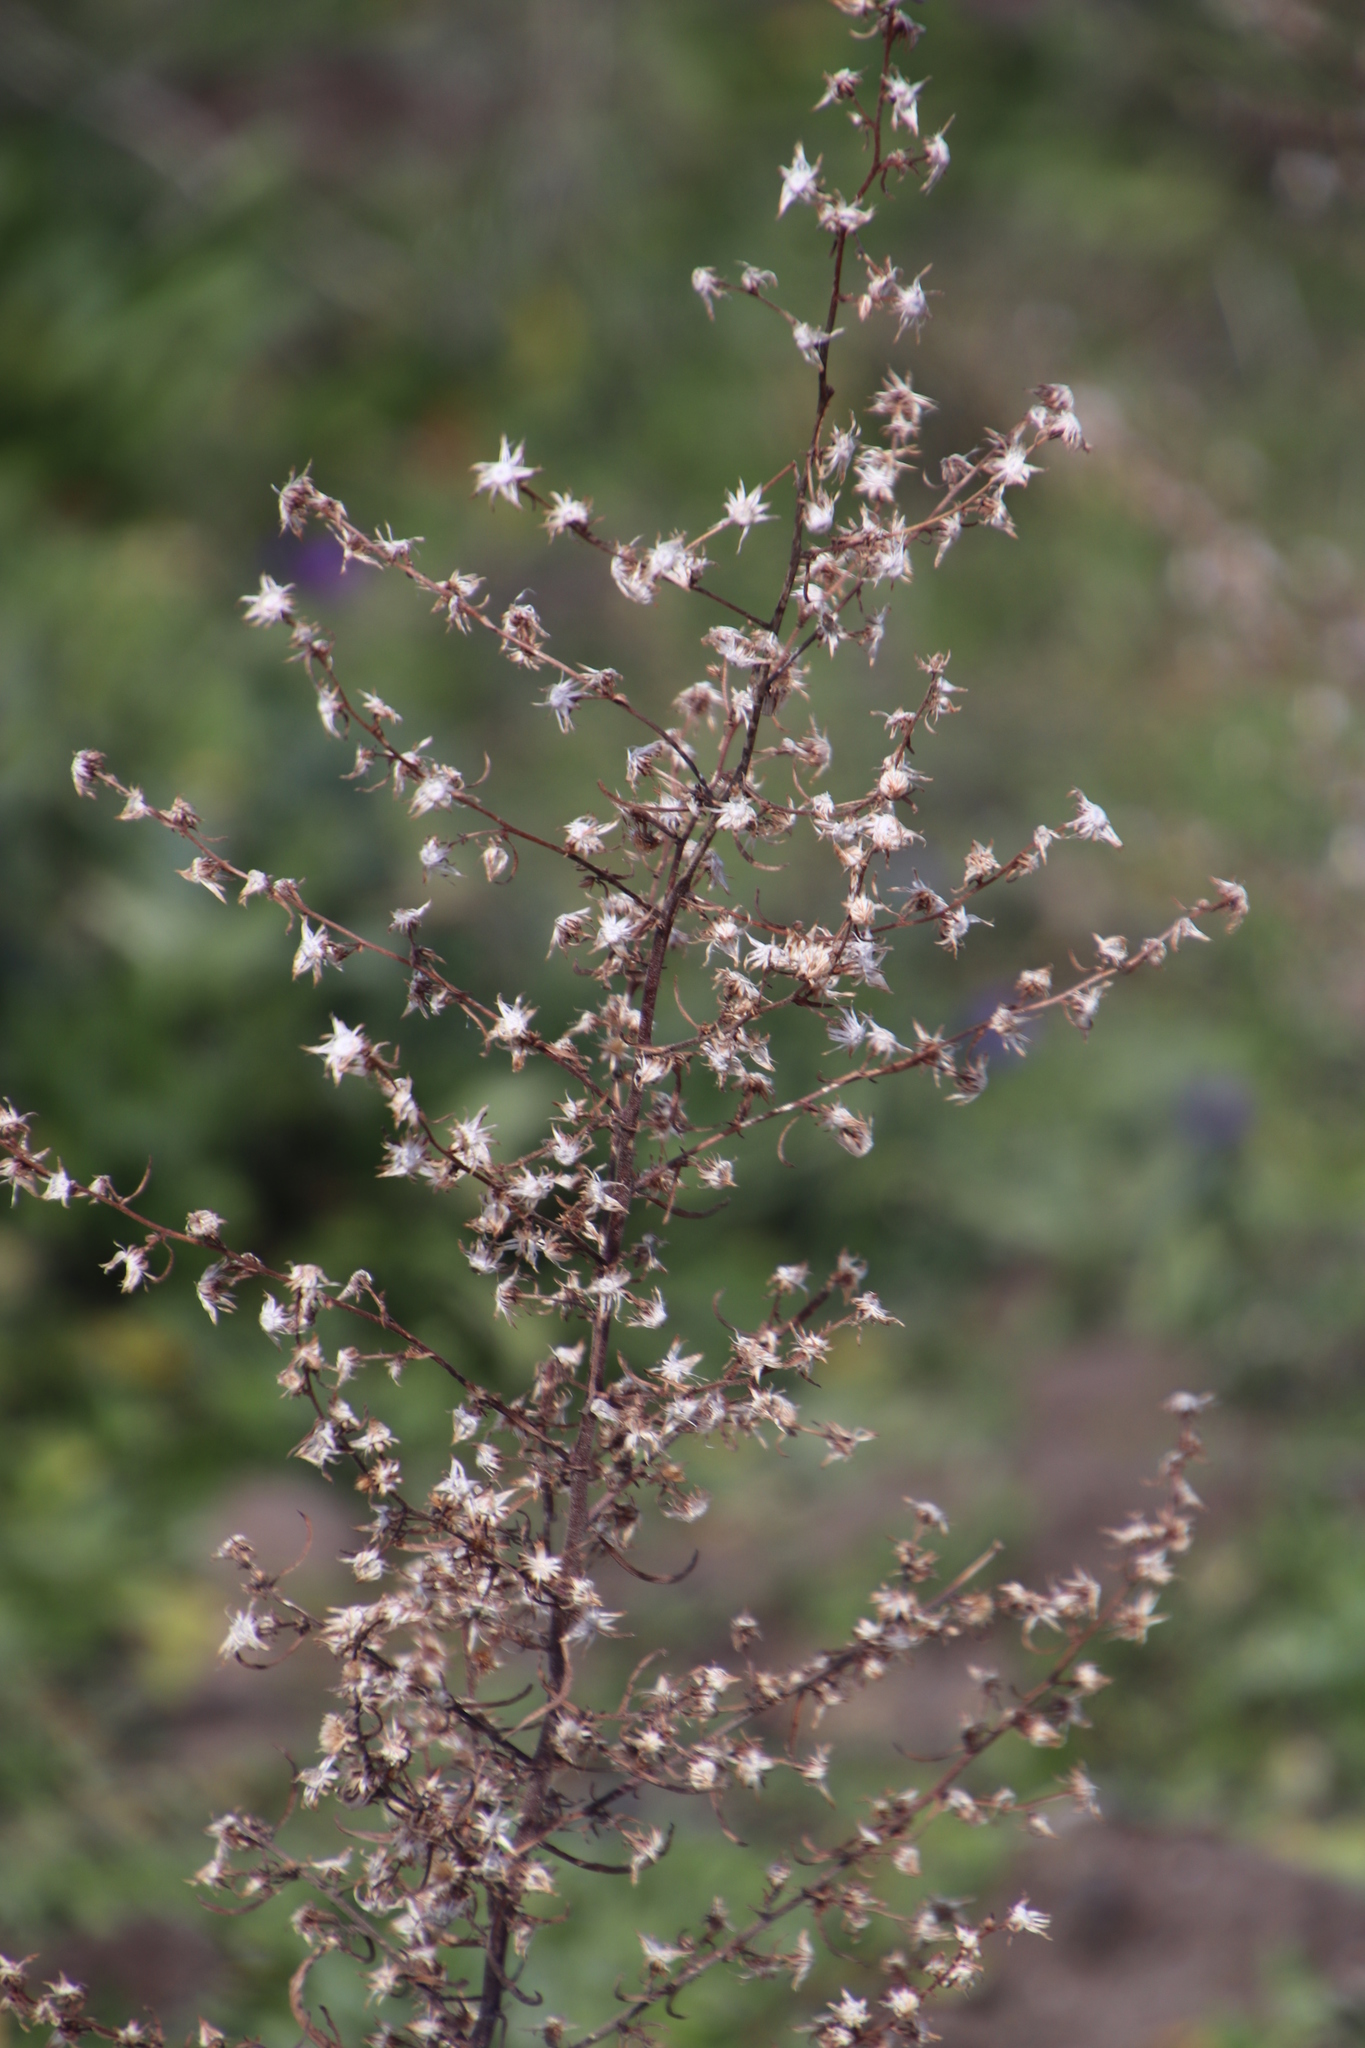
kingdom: Plantae
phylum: Tracheophyta
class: Magnoliopsida
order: Asterales
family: Asteraceae
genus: Dittrichia
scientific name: Dittrichia graveolens
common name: Stinking fleabane
